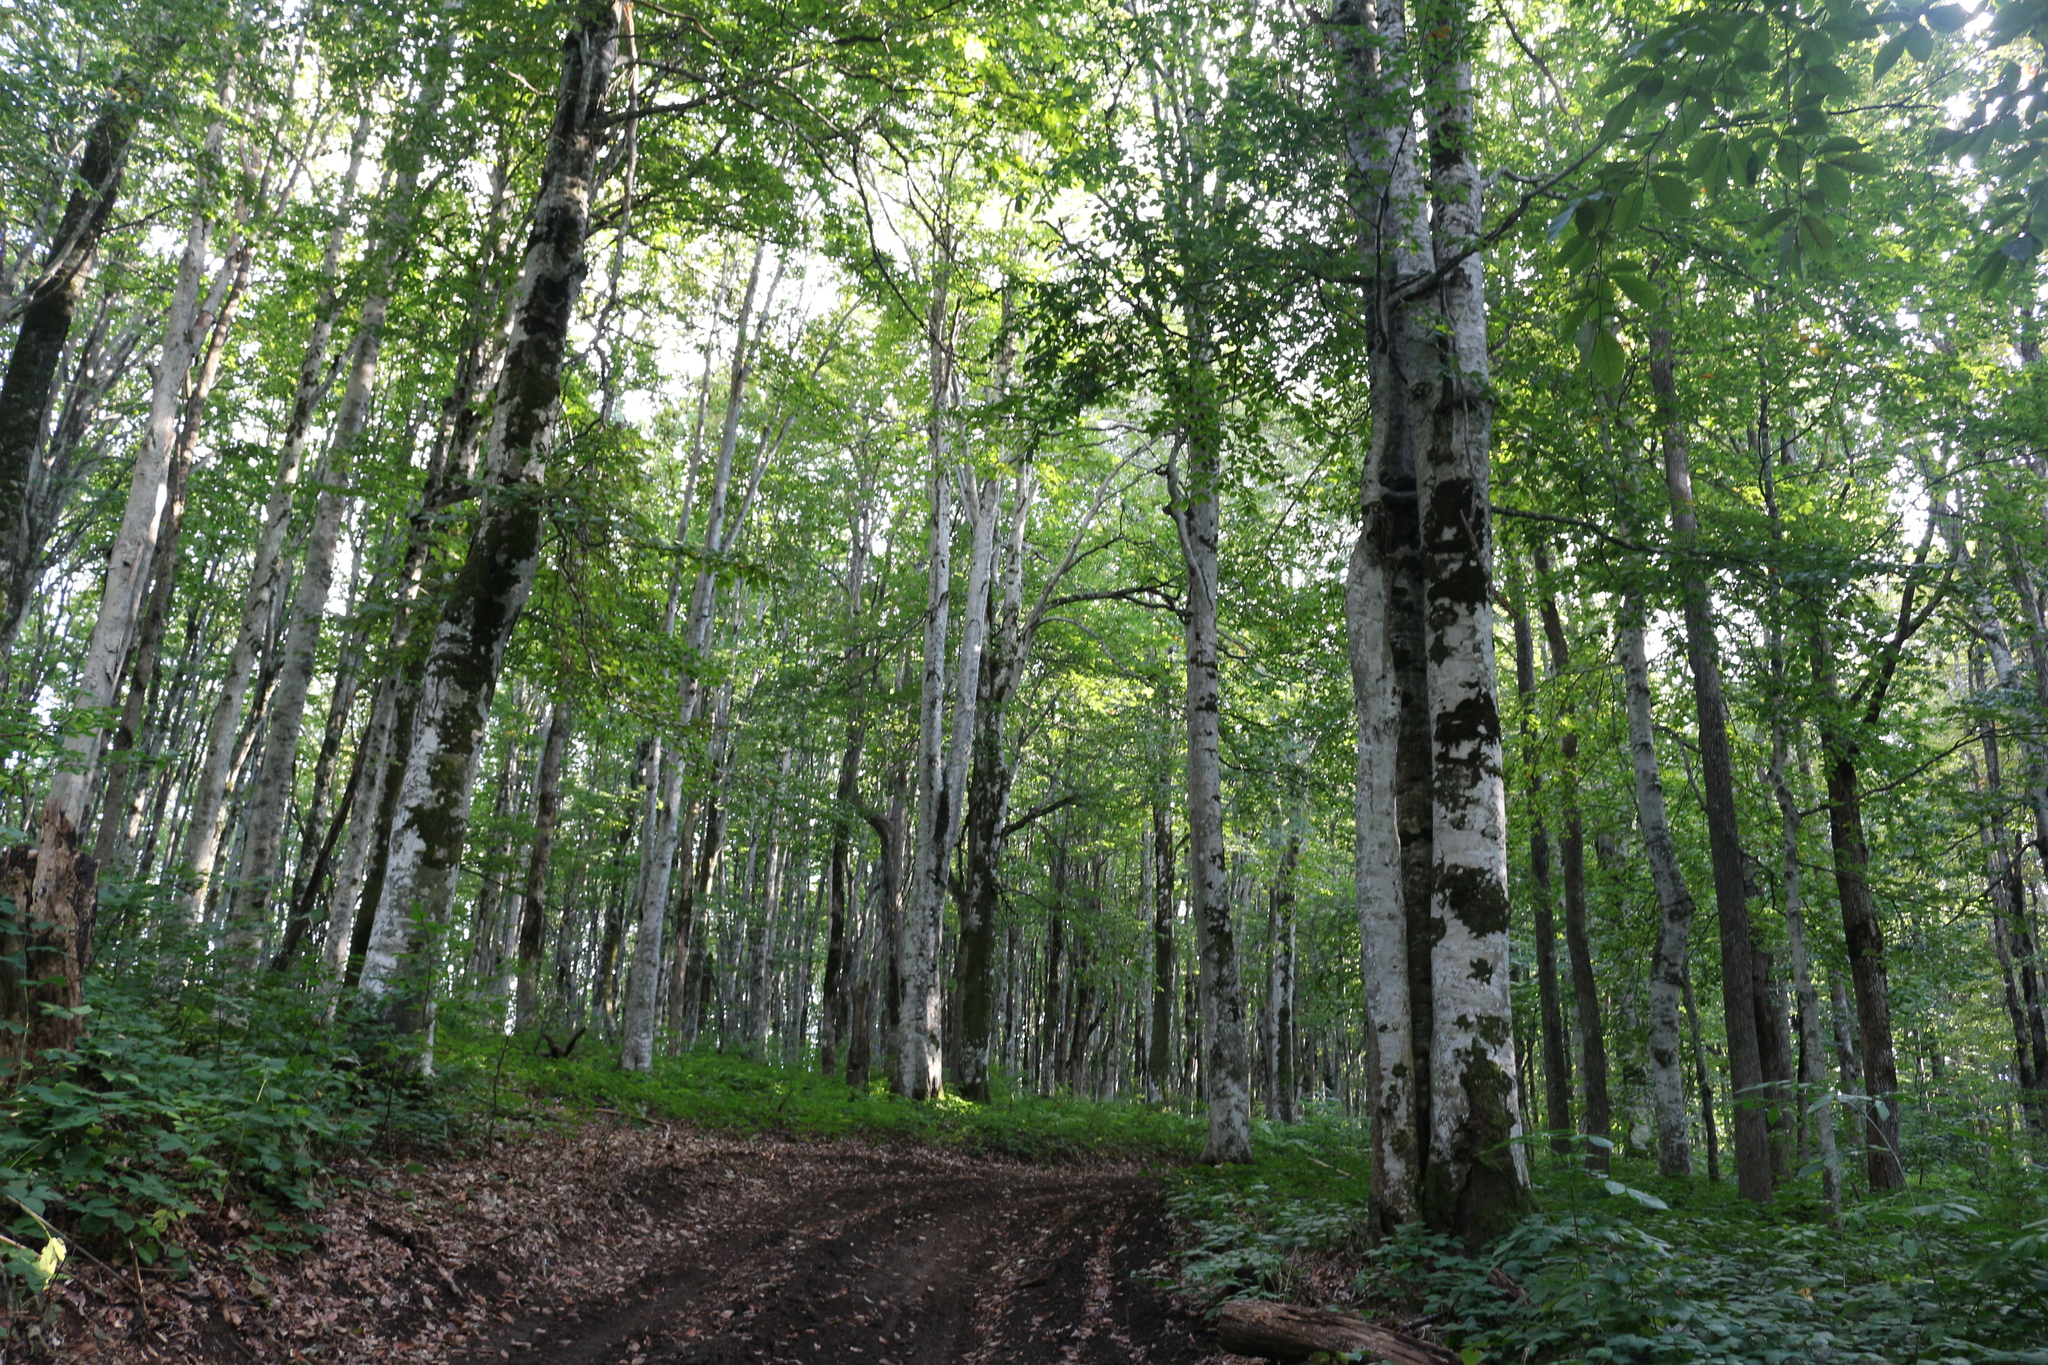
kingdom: Plantae
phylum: Tracheophyta
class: Magnoliopsida
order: Fagales
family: Fagaceae
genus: Fagus
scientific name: Fagus orientalis
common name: Oriental beech
